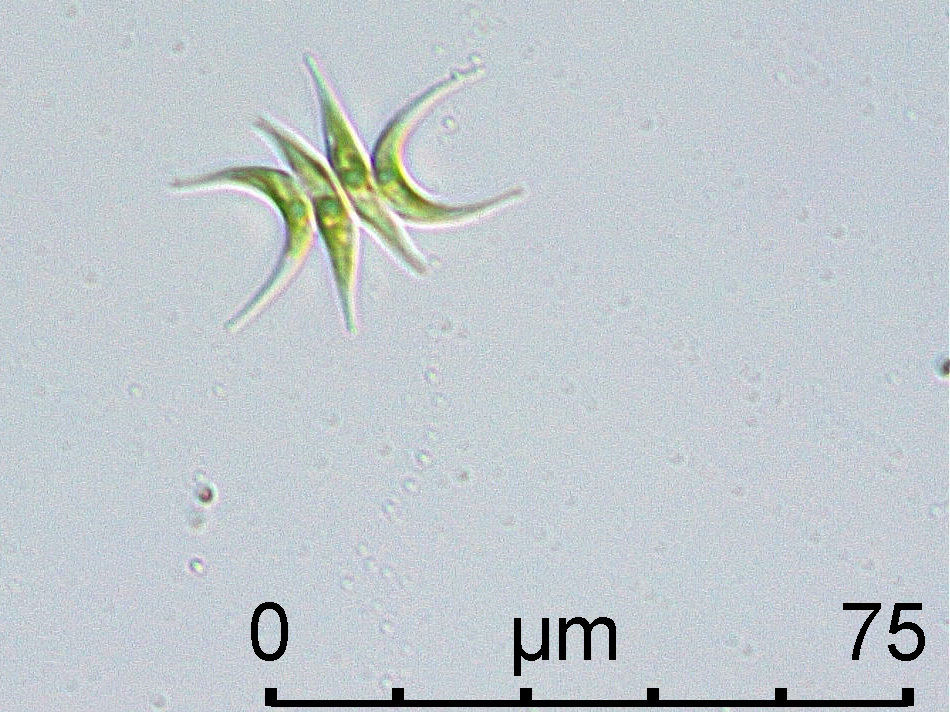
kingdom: Plantae
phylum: Chlorophyta
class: Chlorophyceae
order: Sphaeropleales
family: Scenedesmaceae
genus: Tetradesmus
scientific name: Tetradesmus lagerheimii
